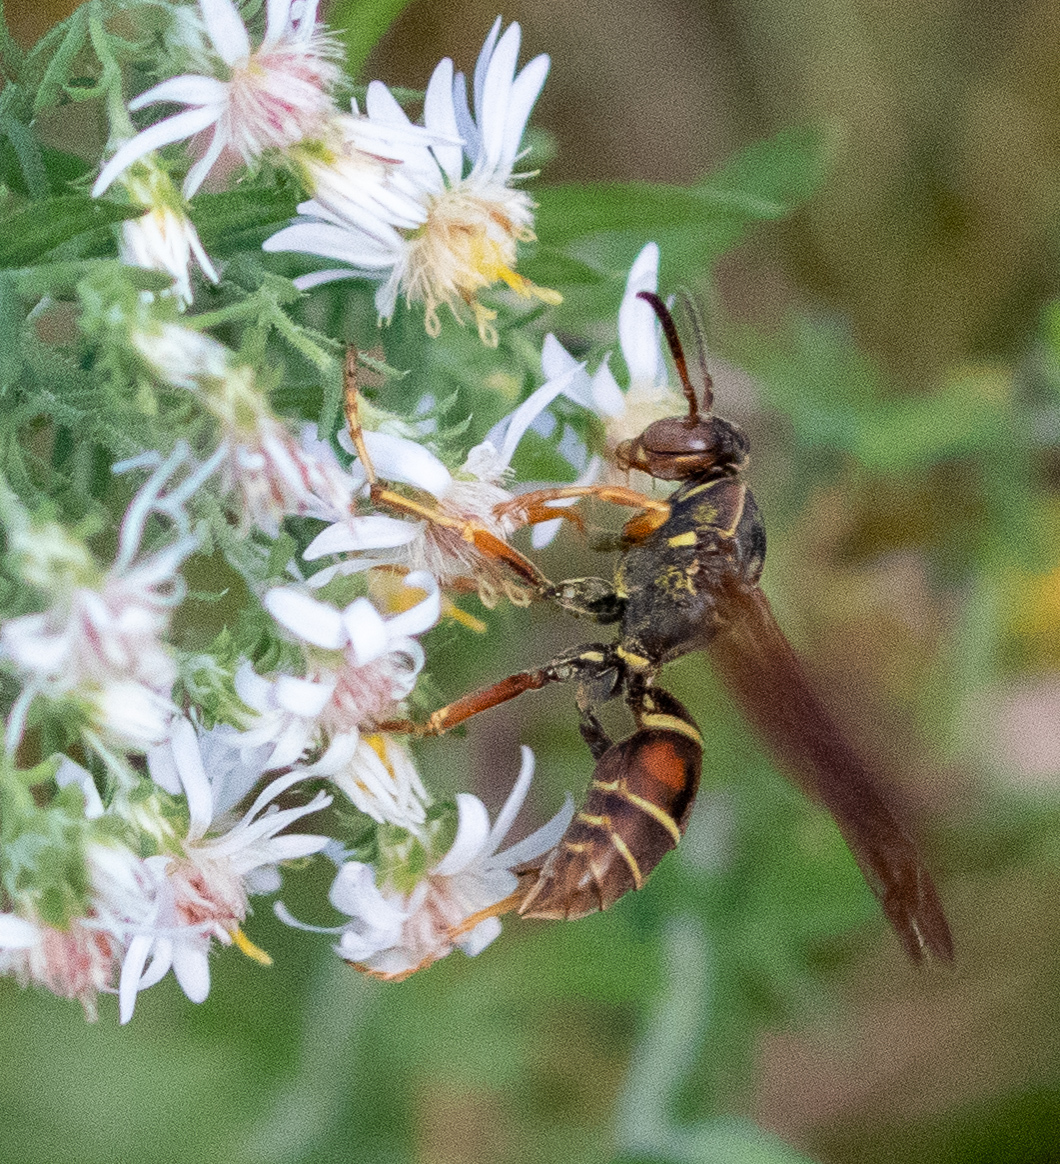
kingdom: Animalia
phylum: Arthropoda
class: Insecta
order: Hymenoptera
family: Eumenidae
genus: Polistes
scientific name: Polistes fuscatus
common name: Dark paper wasp
